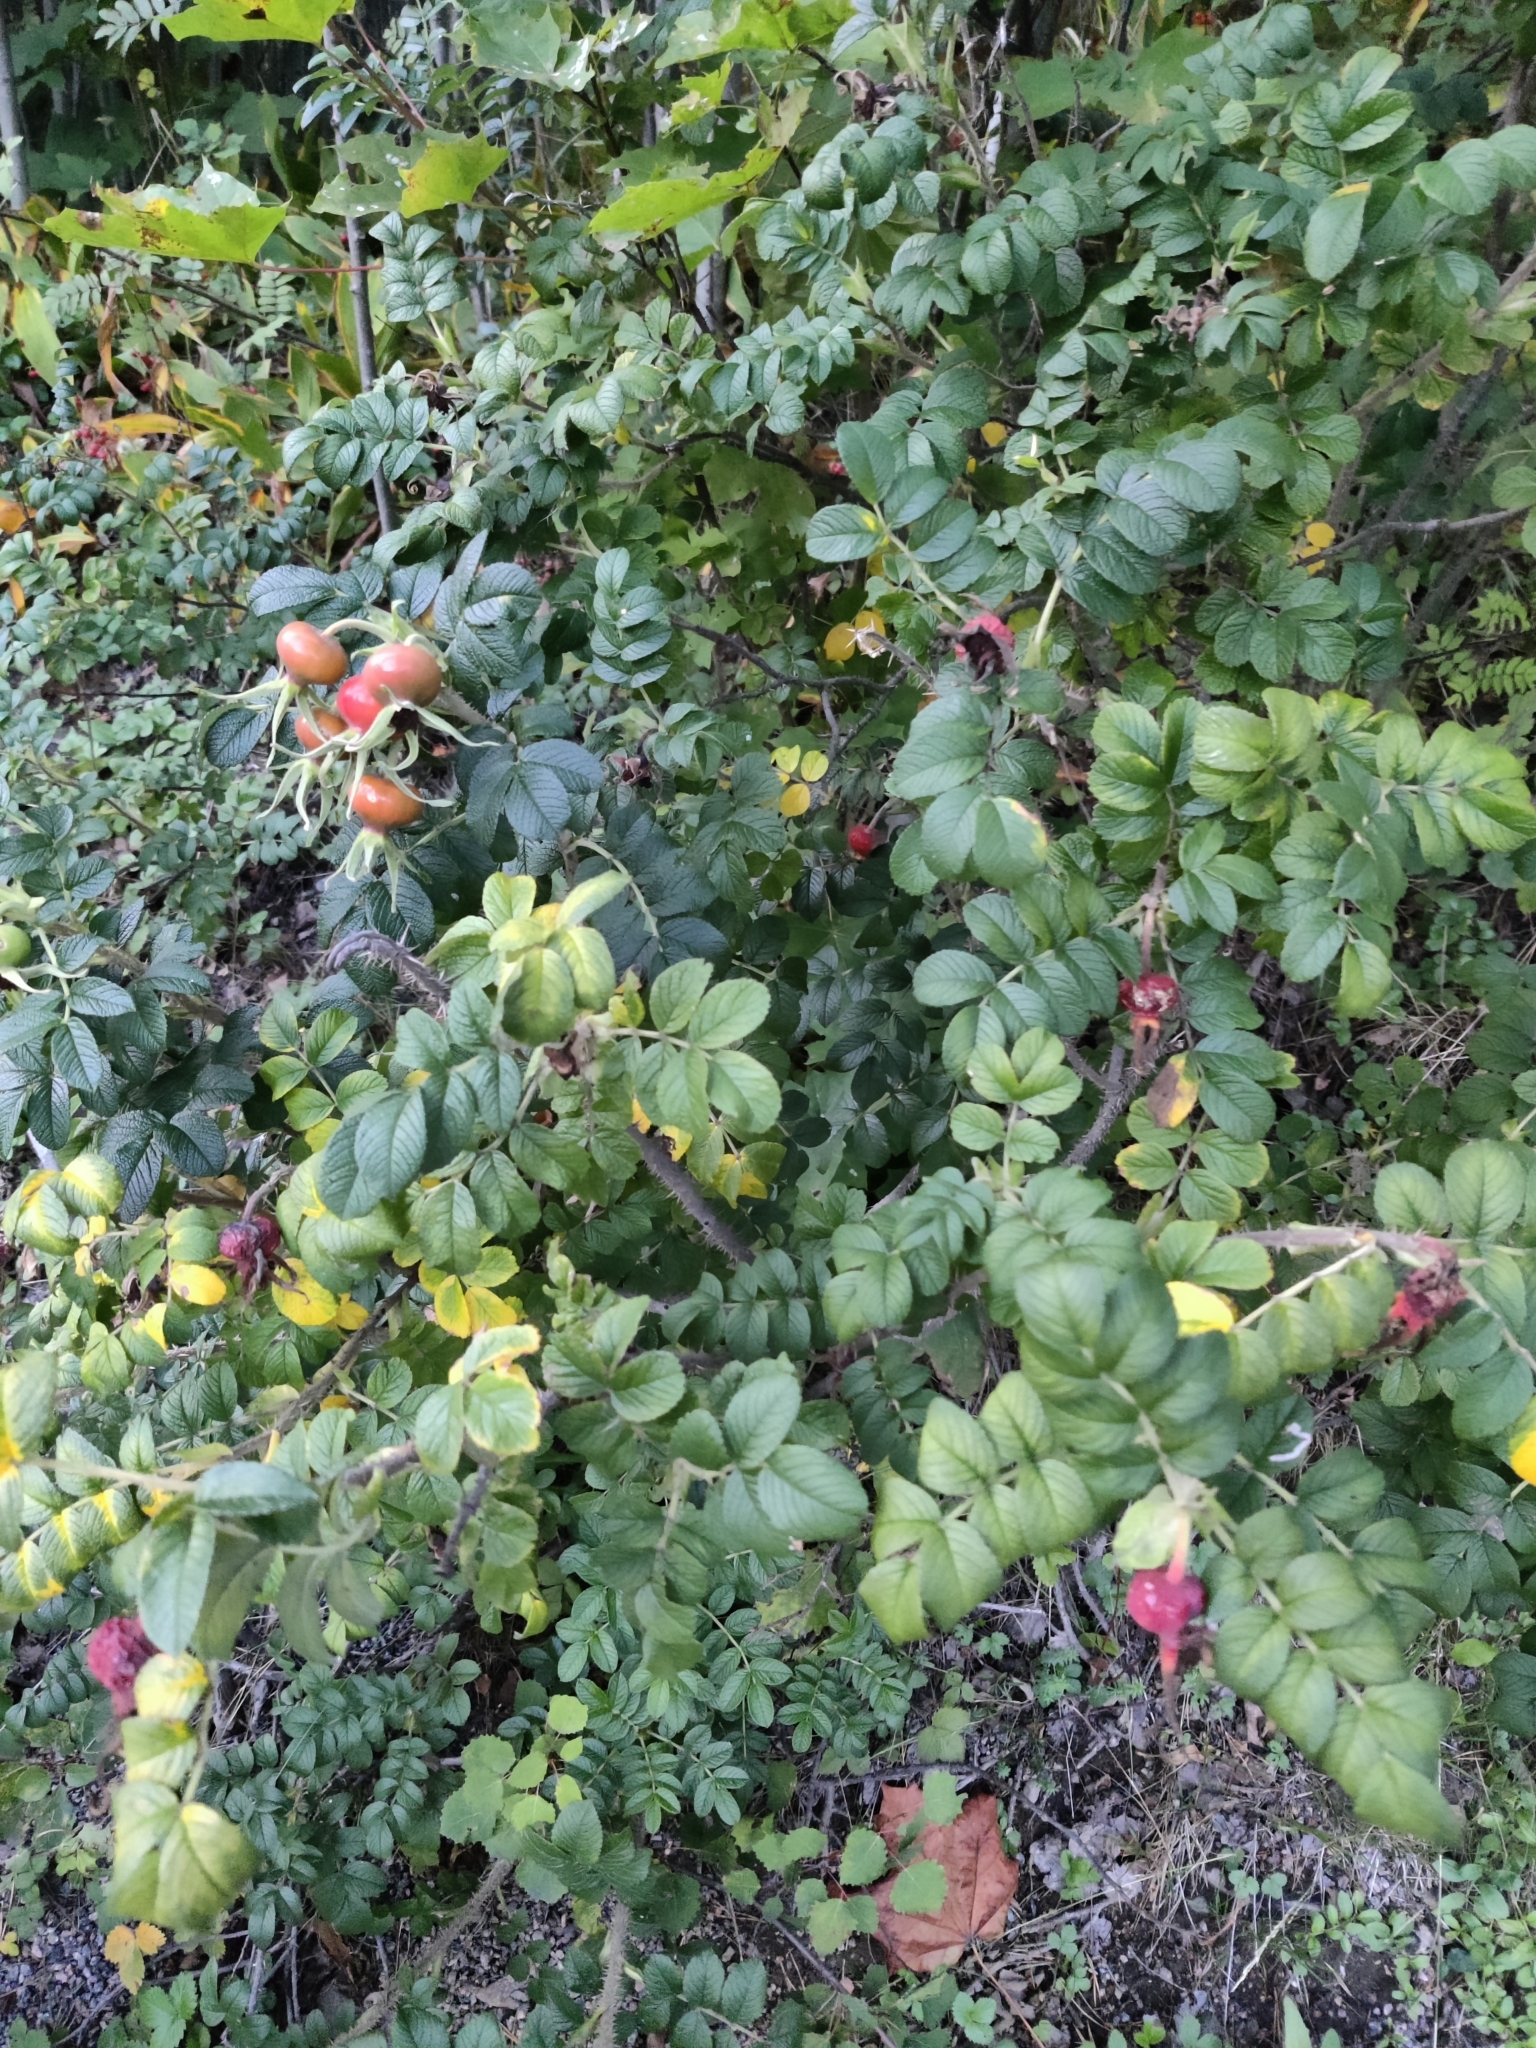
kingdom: Plantae
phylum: Tracheophyta
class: Magnoliopsida
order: Rosales
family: Rosaceae
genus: Rosa
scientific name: Rosa rugosa
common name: Japanese rose
